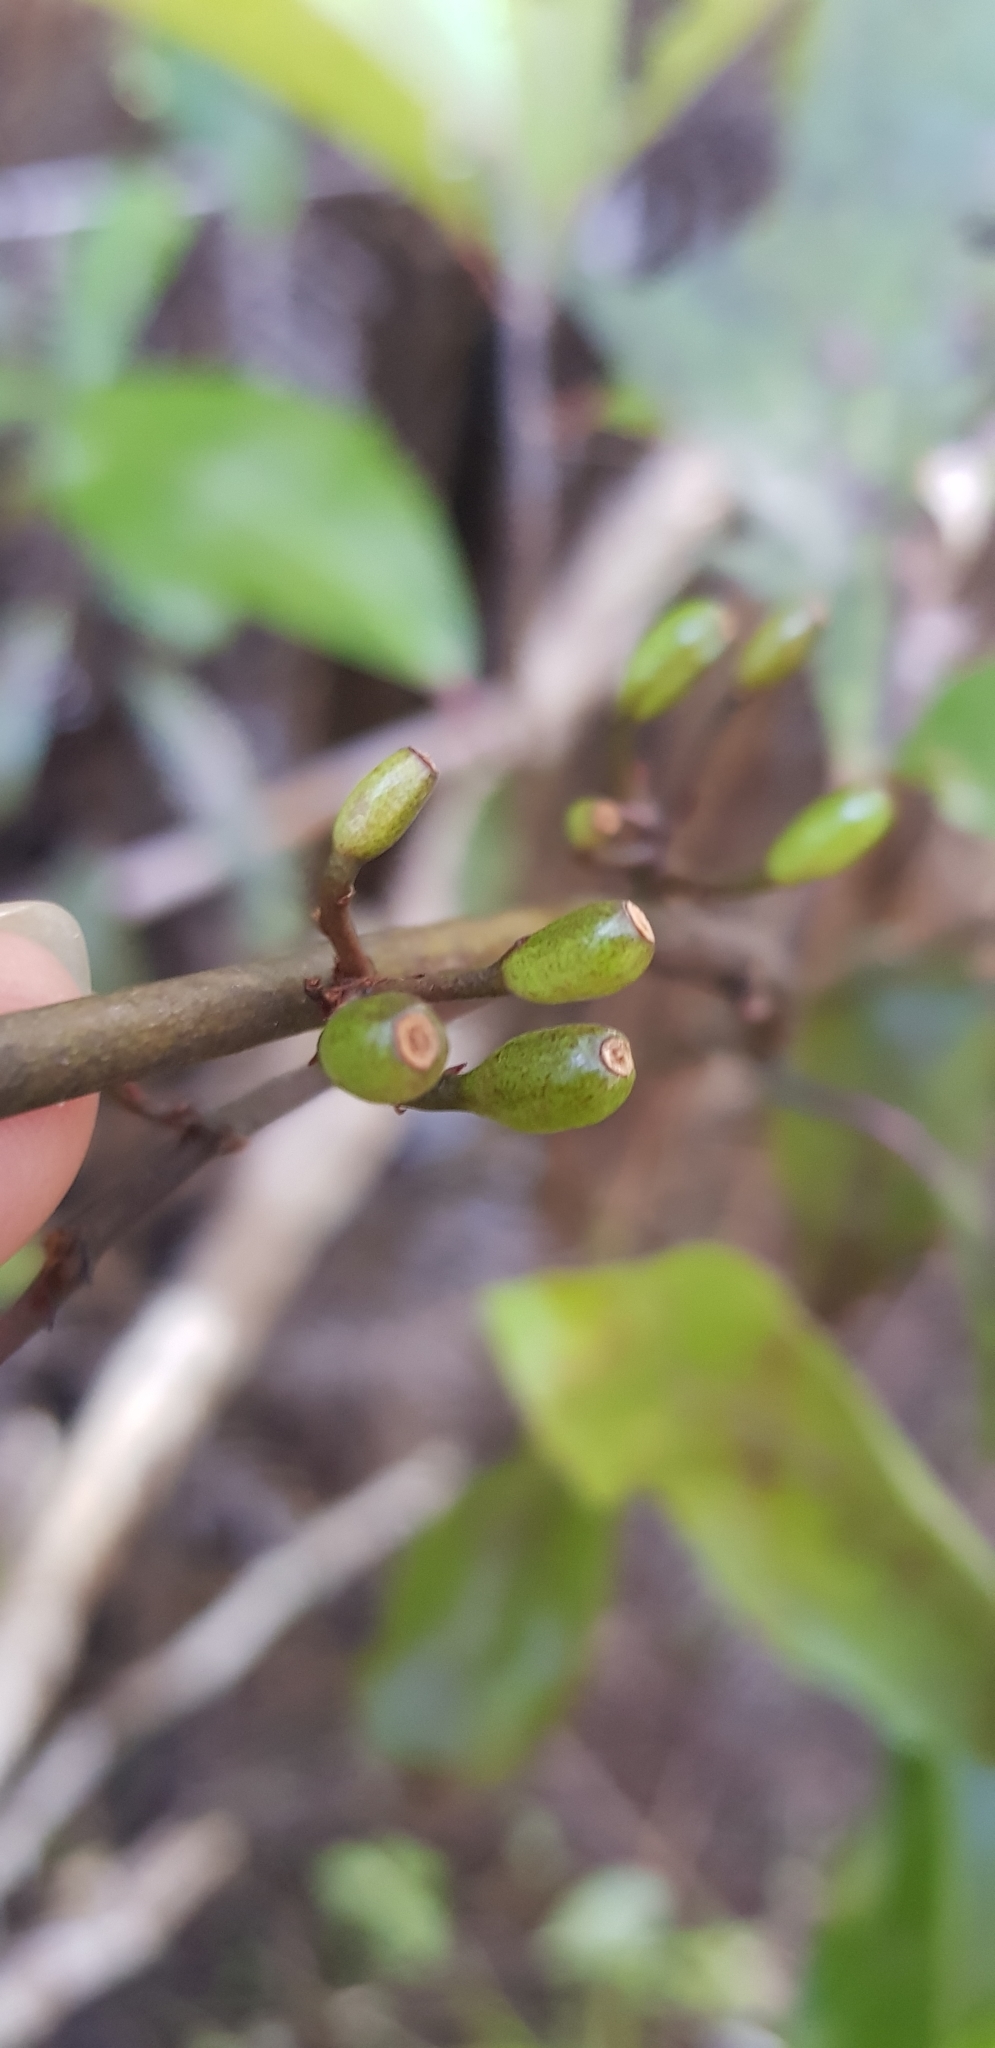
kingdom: Plantae
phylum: Tracheophyta
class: Magnoliopsida
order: Asterales
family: Alseuosmiaceae
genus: Alseuosmia
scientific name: Alseuosmia quercifolia
